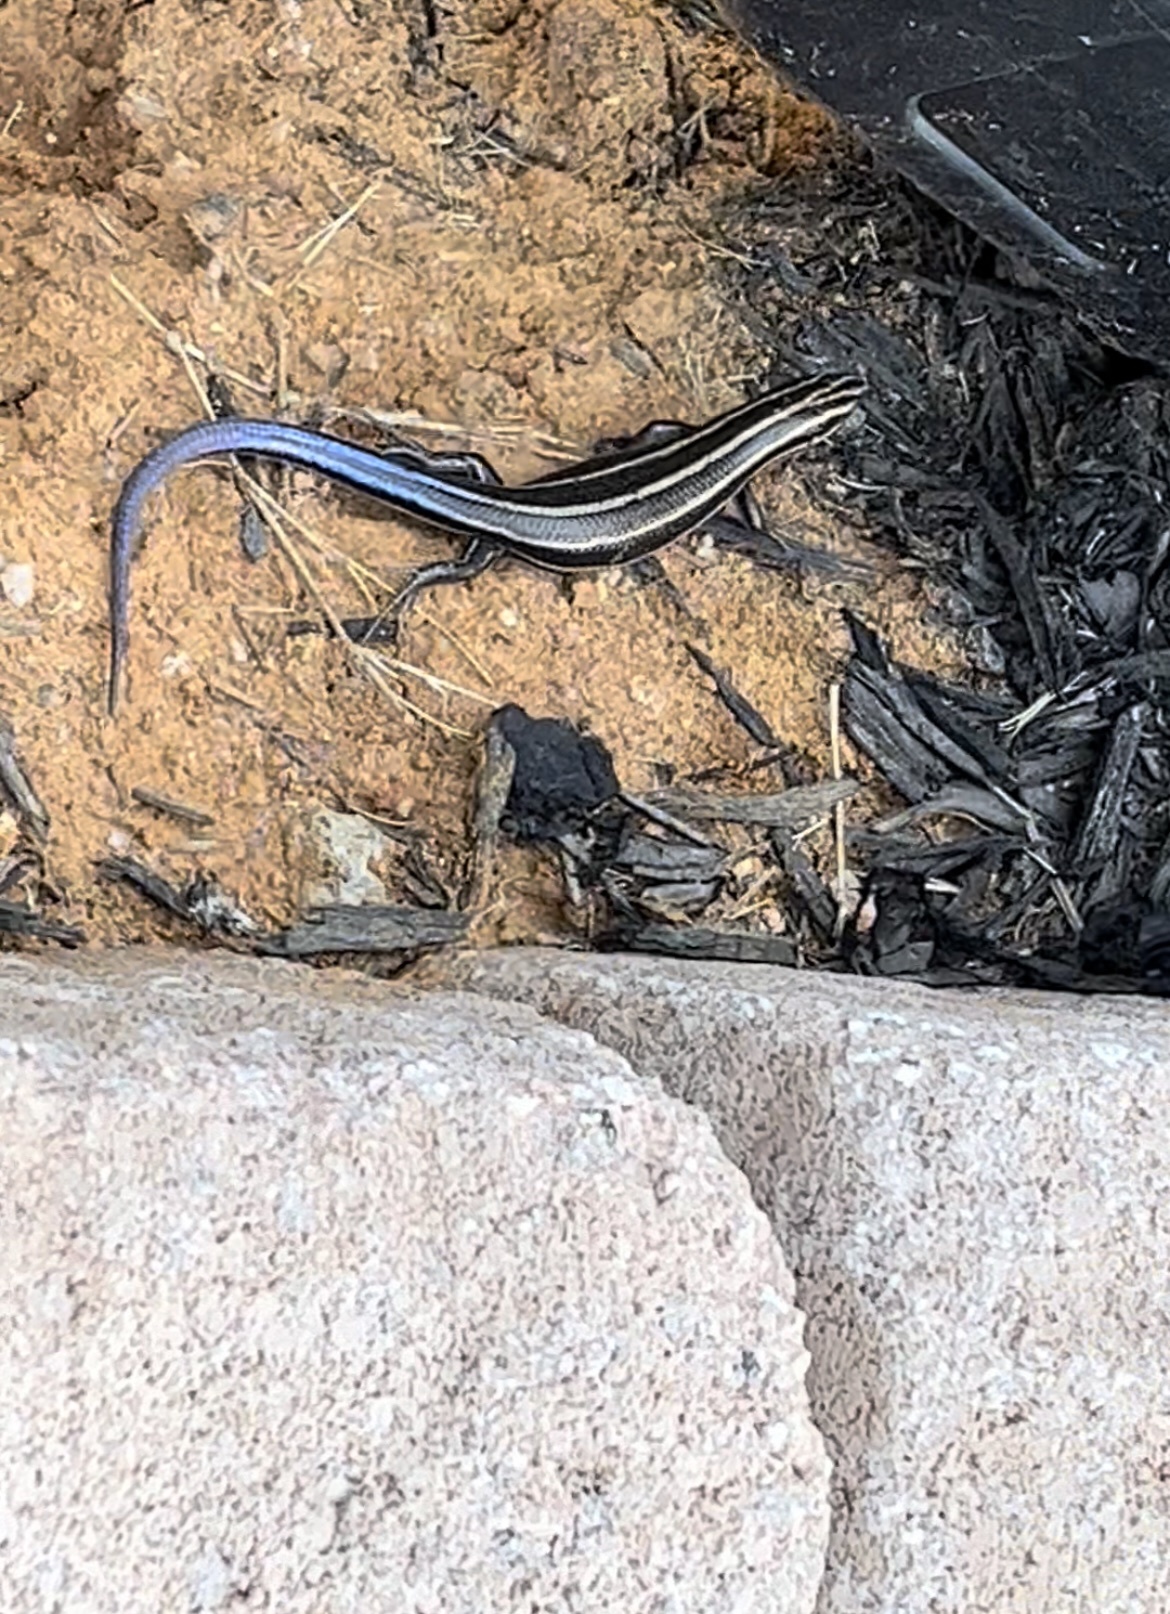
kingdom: Animalia
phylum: Chordata
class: Squamata
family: Scincidae
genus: Plestiodon
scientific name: Plestiodon fasciatus
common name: Five-lined skink
